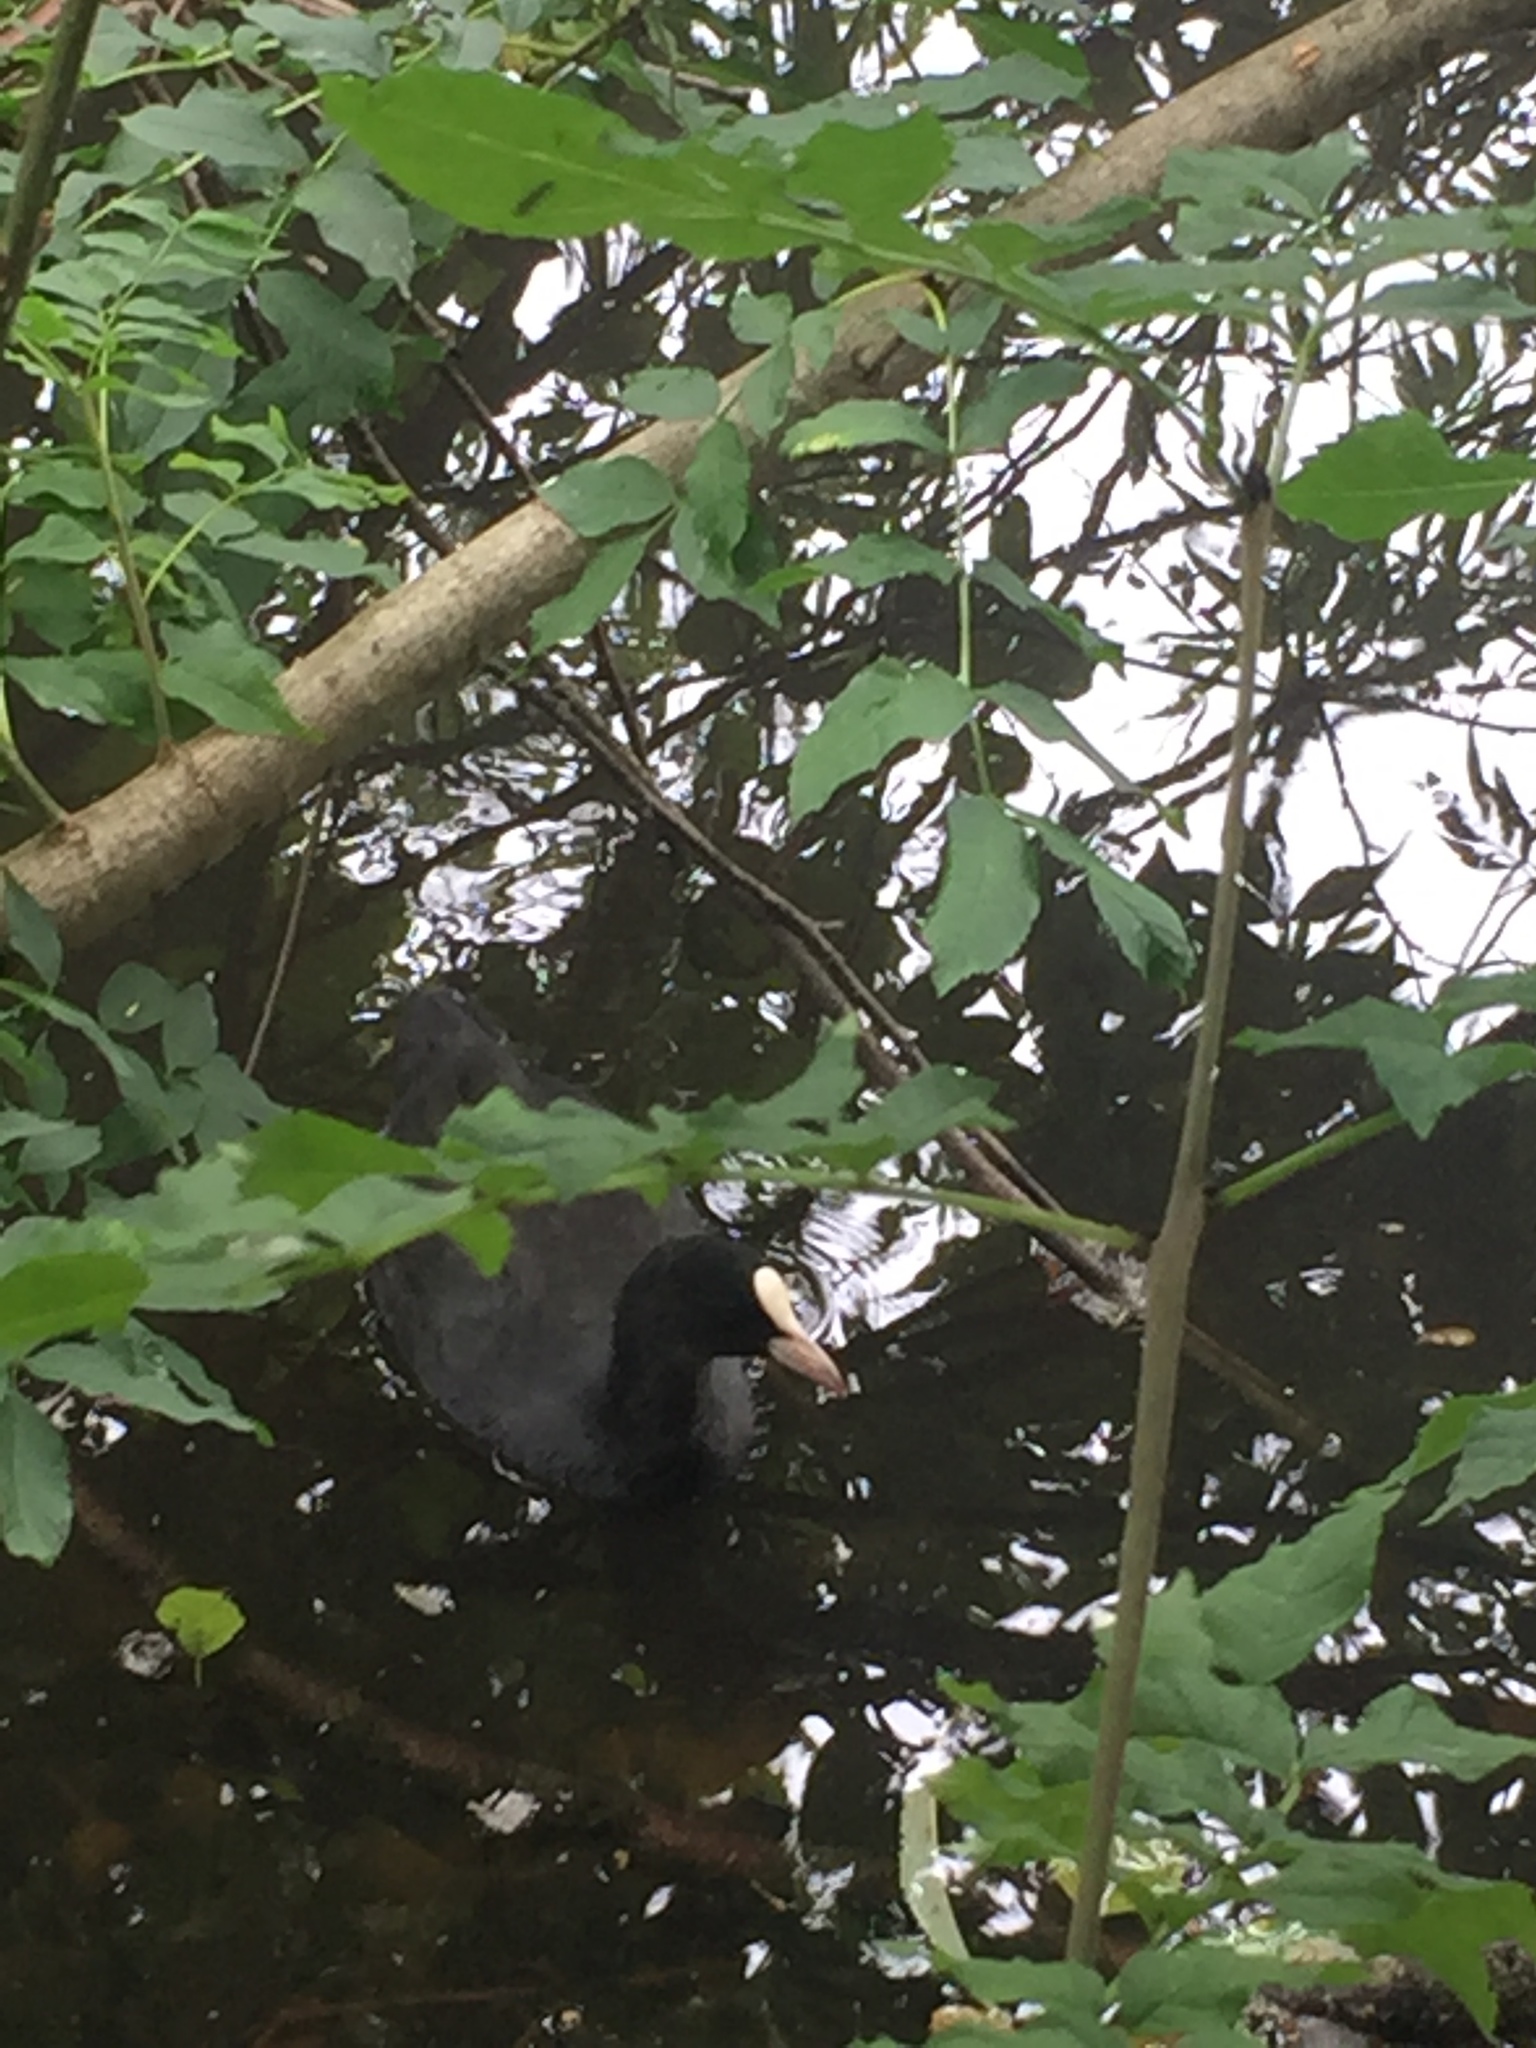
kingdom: Animalia
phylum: Chordata
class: Aves
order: Gruiformes
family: Rallidae
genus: Fulica
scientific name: Fulica atra
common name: Eurasian coot
